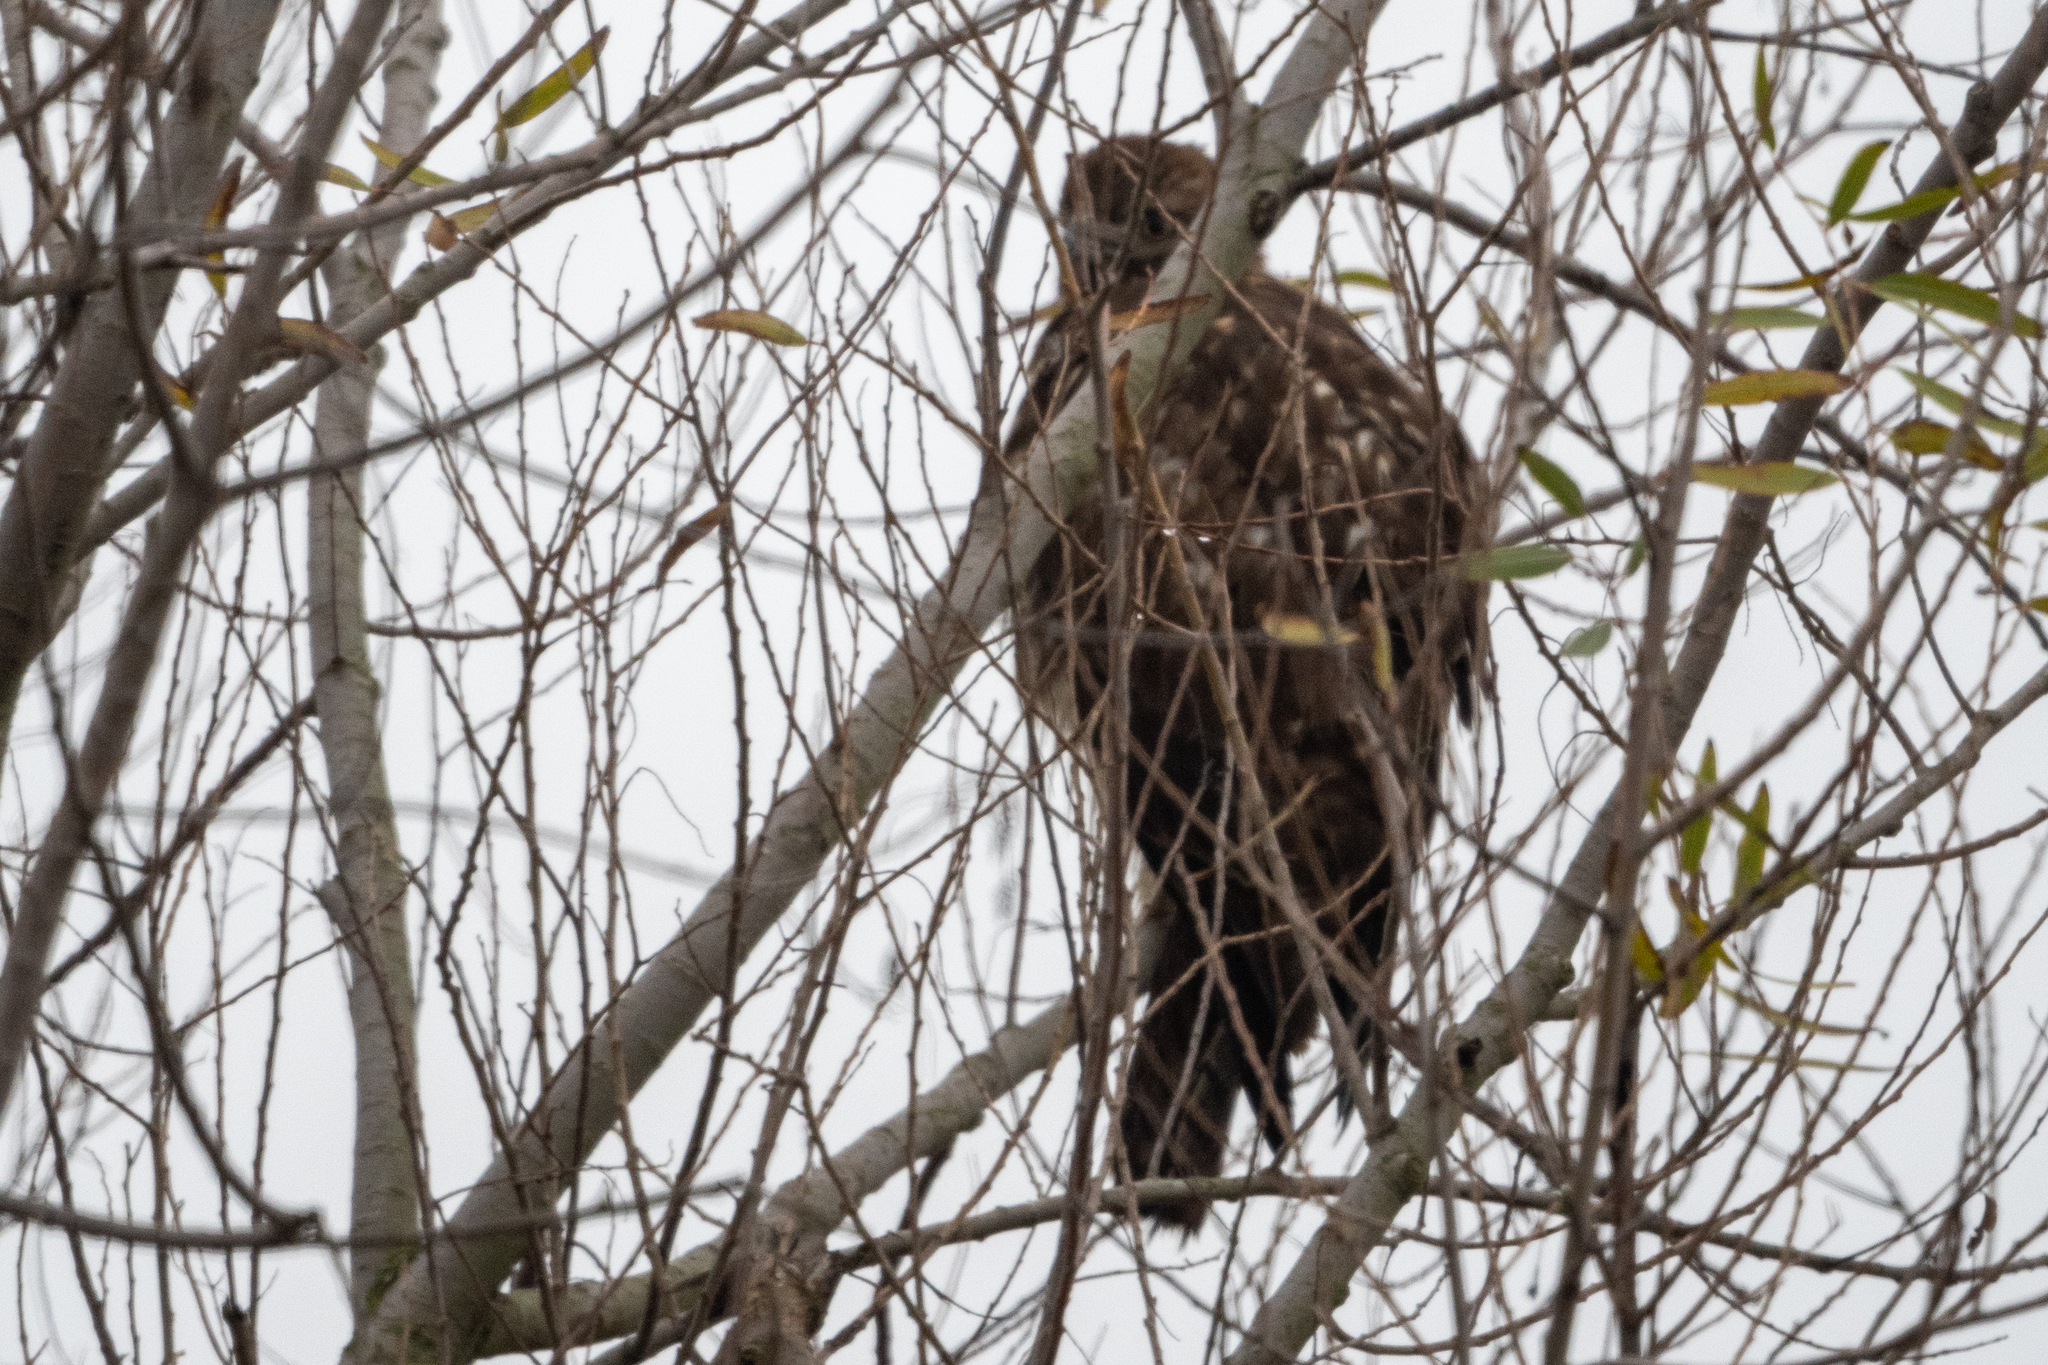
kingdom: Animalia
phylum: Chordata
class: Aves
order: Accipitriformes
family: Accipitridae
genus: Buteo
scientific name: Buteo jamaicensis
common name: Red-tailed hawk
